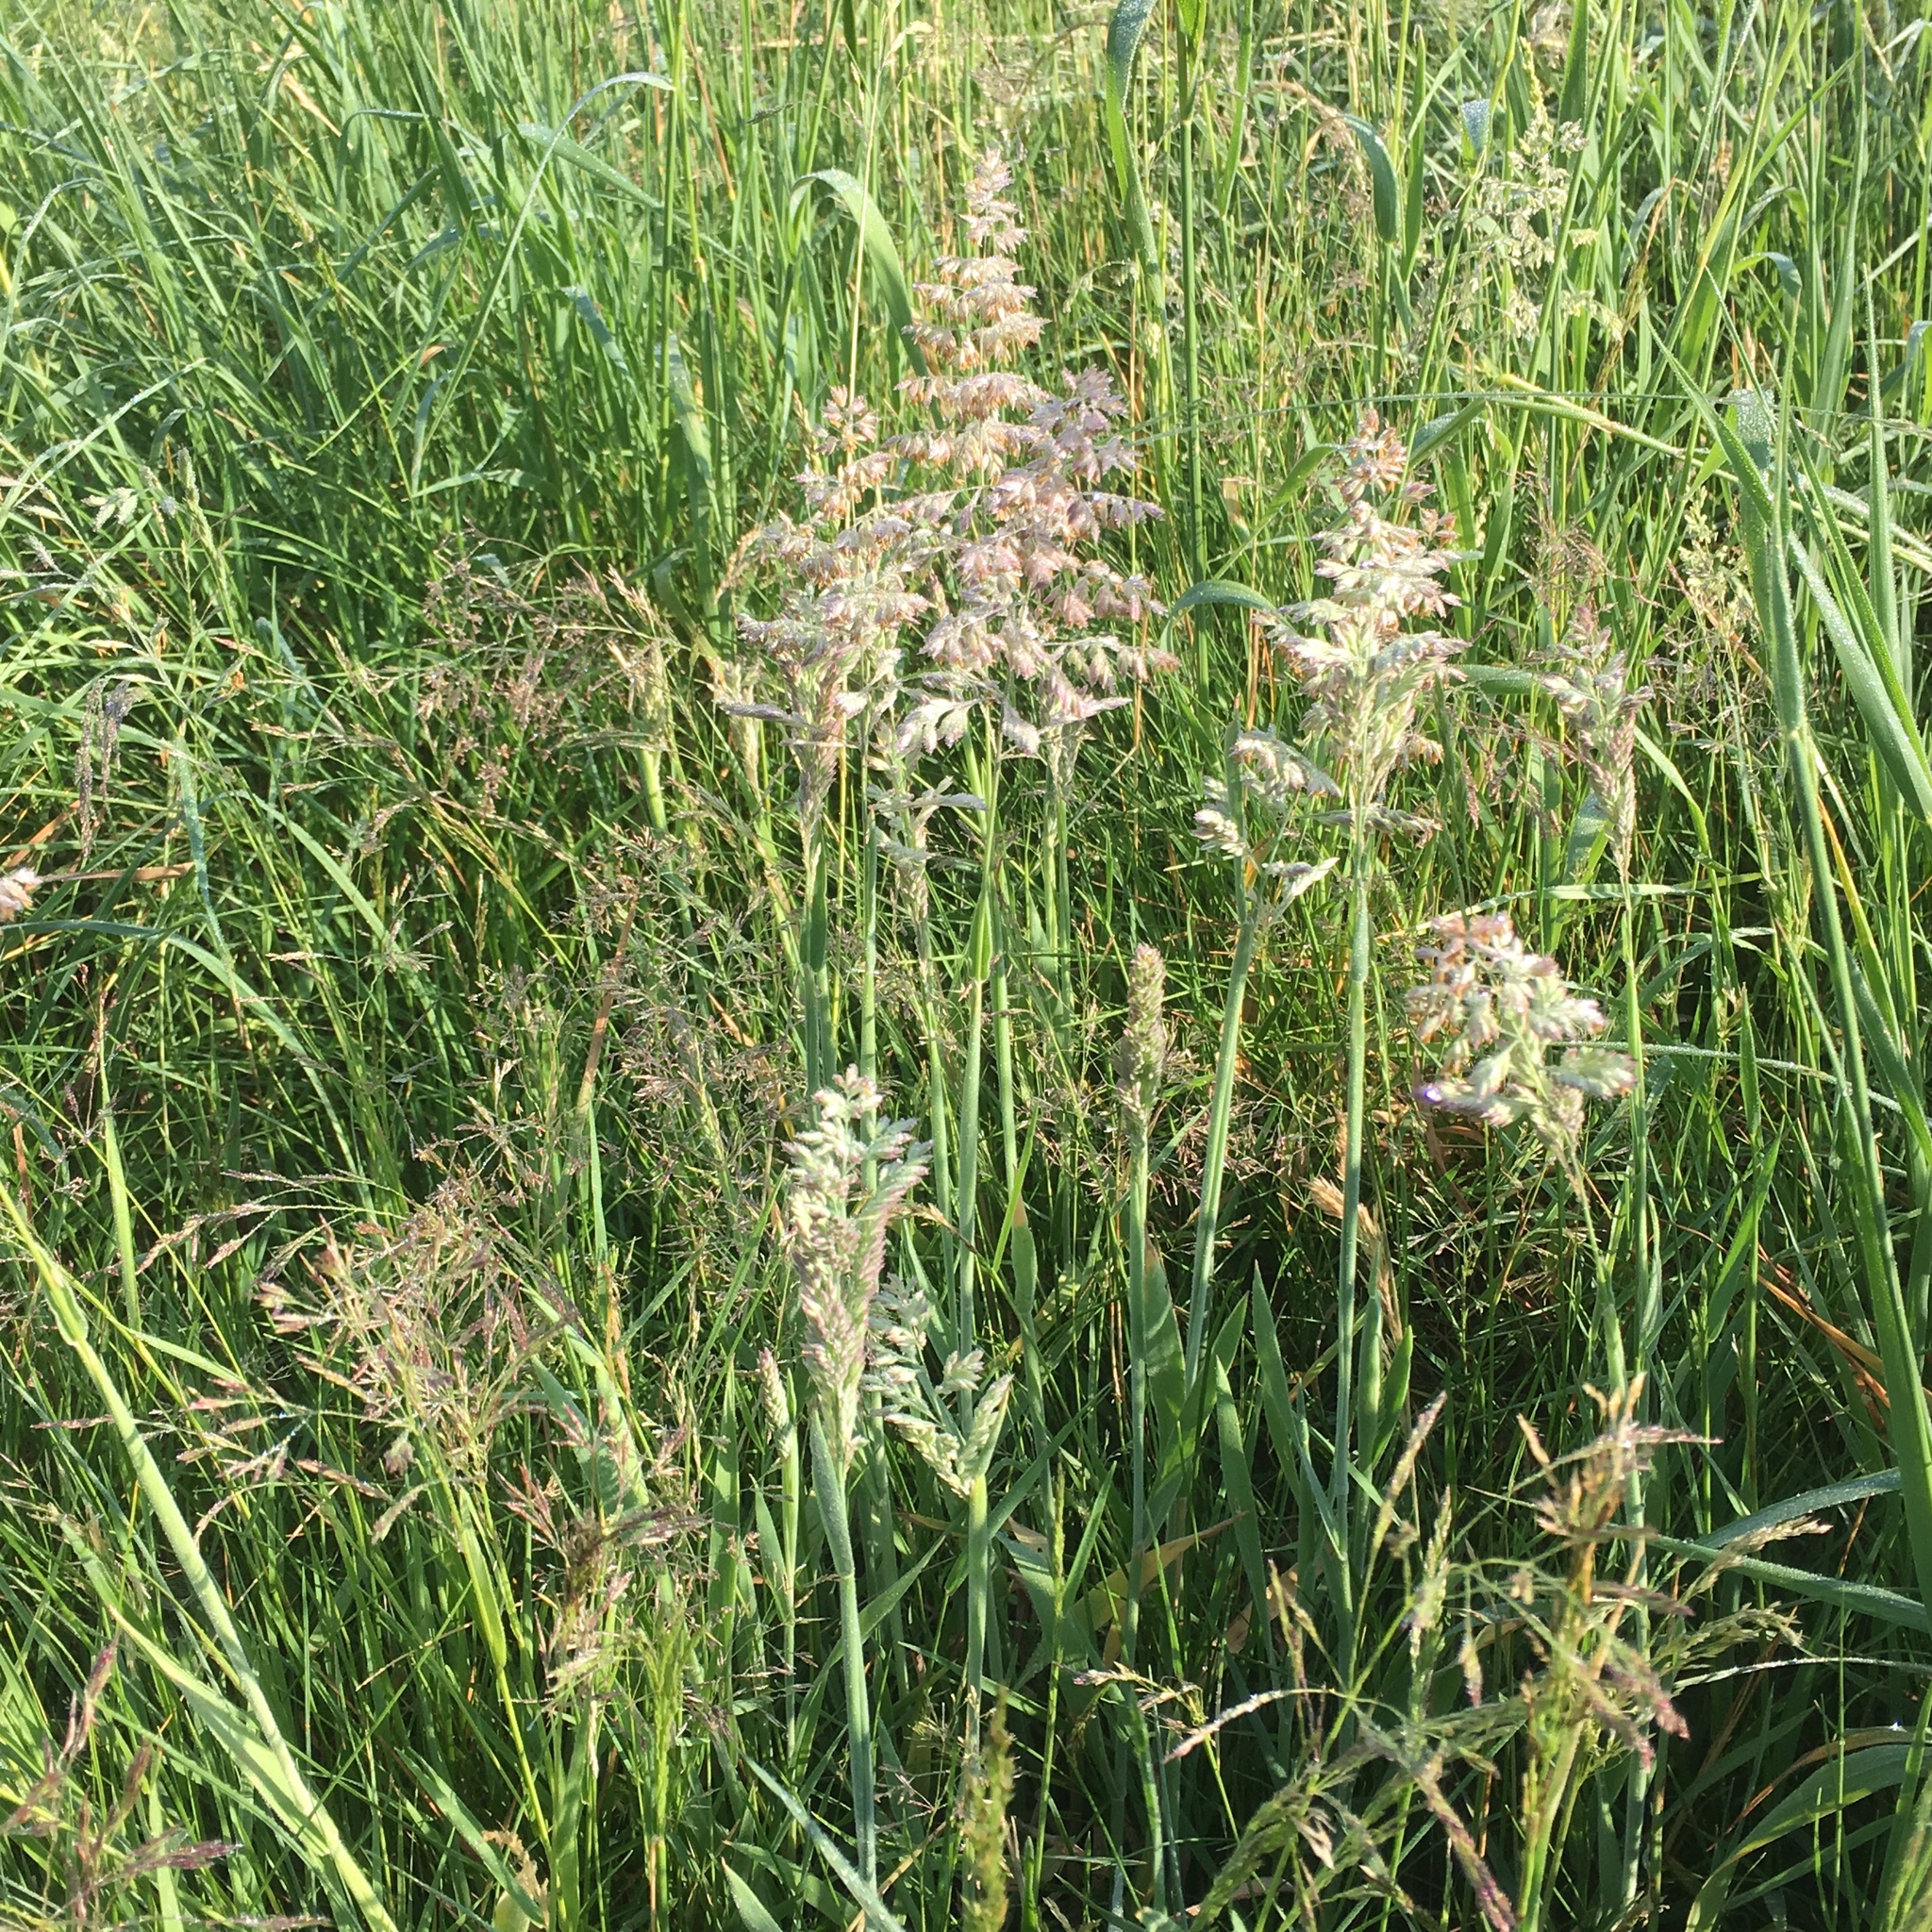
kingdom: Plantae
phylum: Tracheophyta
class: Liliopsida
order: Poales
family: Poaceae
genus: Holcus
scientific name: Holcus lanatus
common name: Yorkshire-fog
